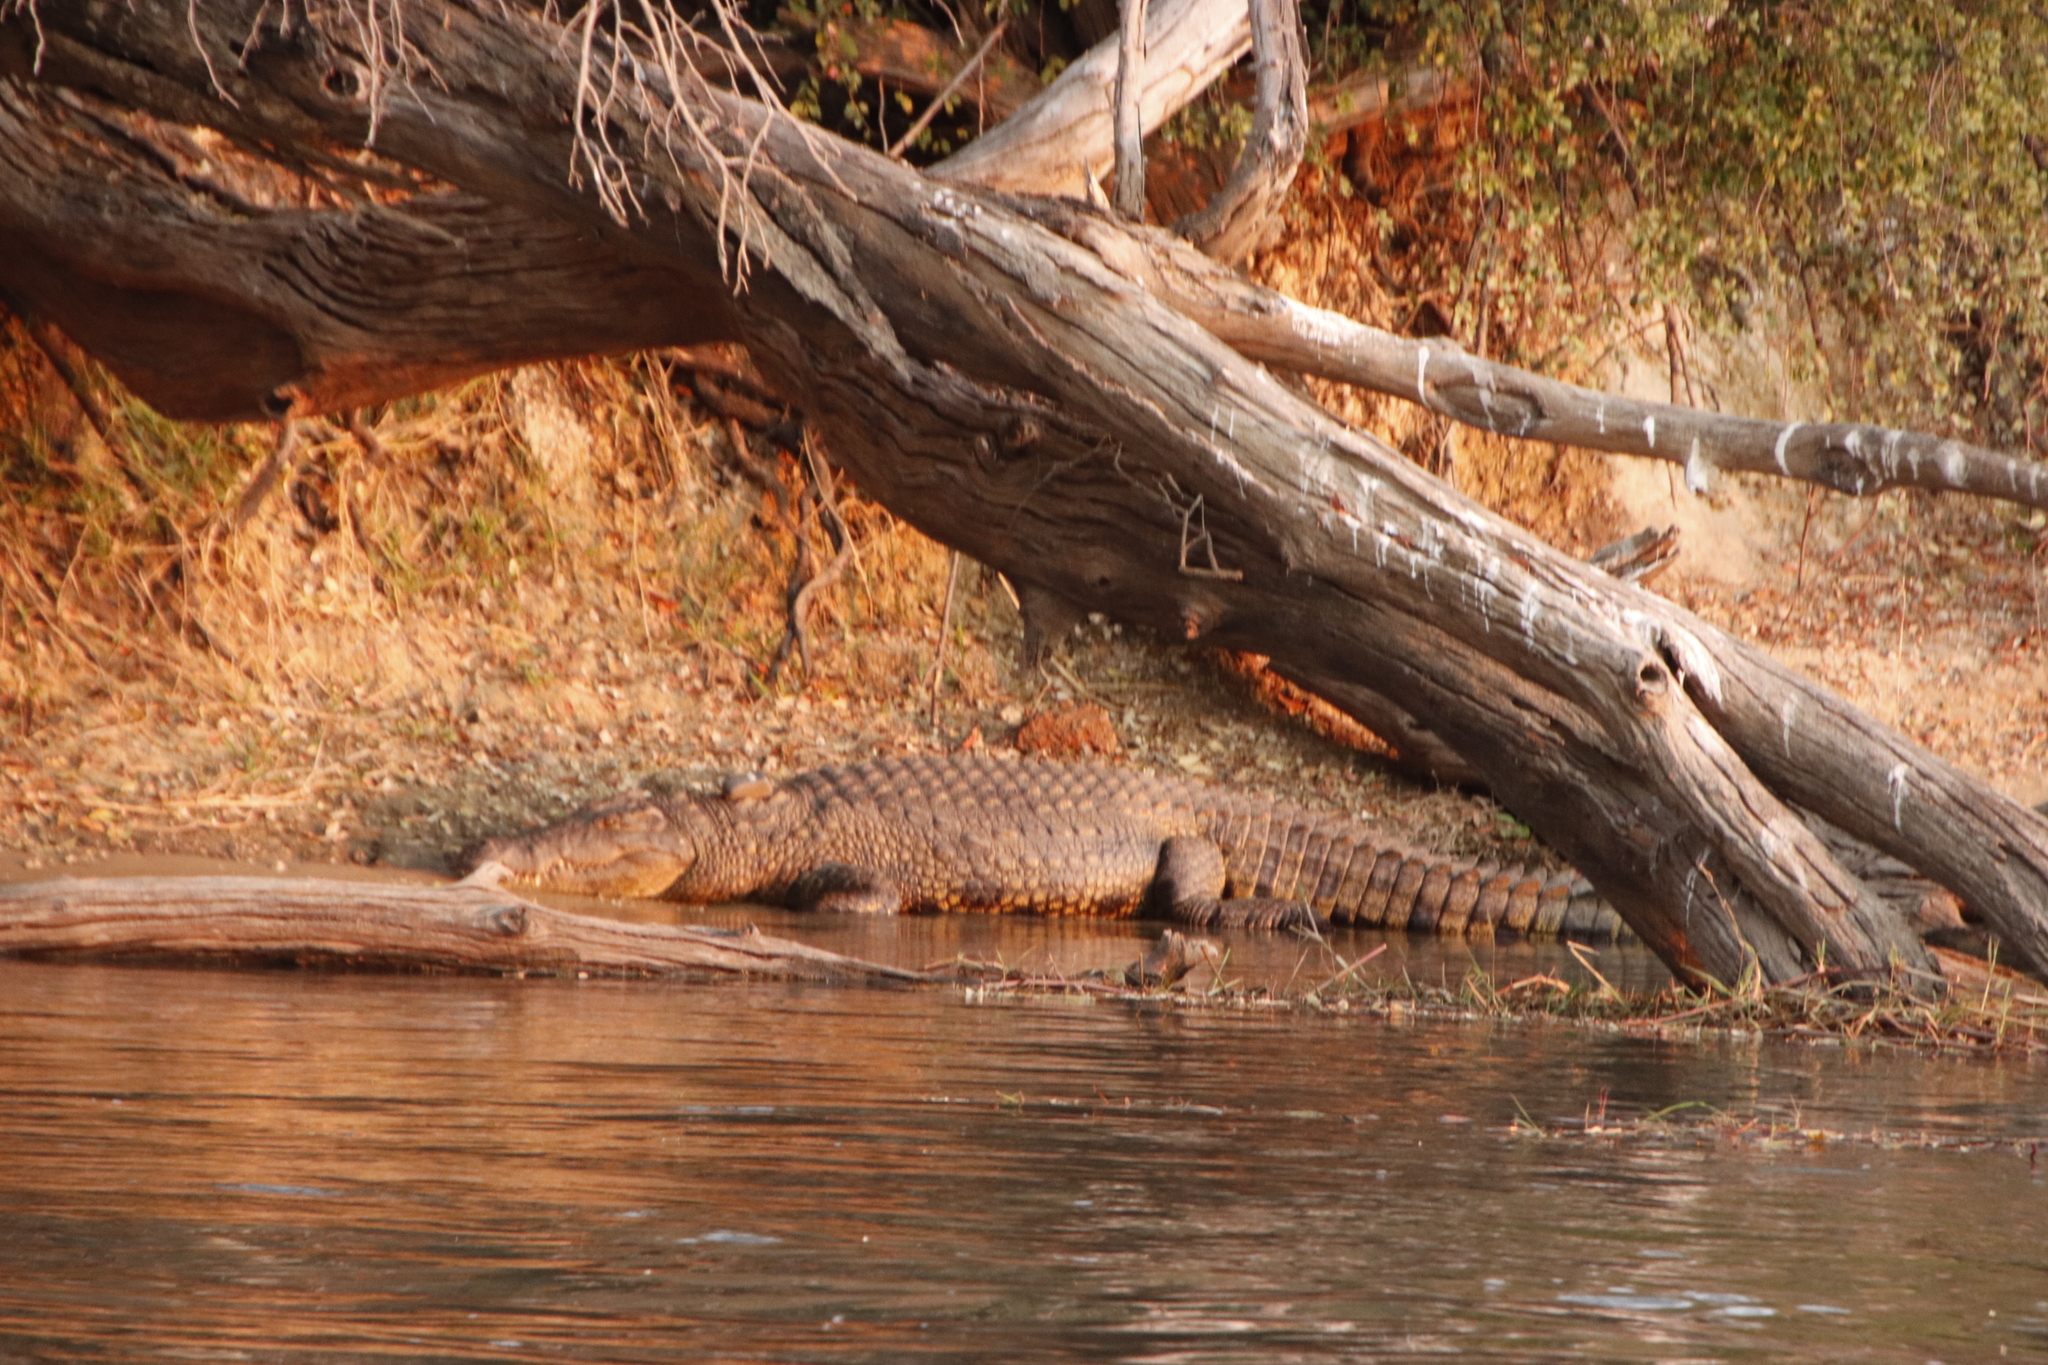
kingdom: Animalia
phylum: Chordata
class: Crocodylia
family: Crocodylidae
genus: Crocodylus
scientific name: Crocodylus niloticus
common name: Nile crocodile
